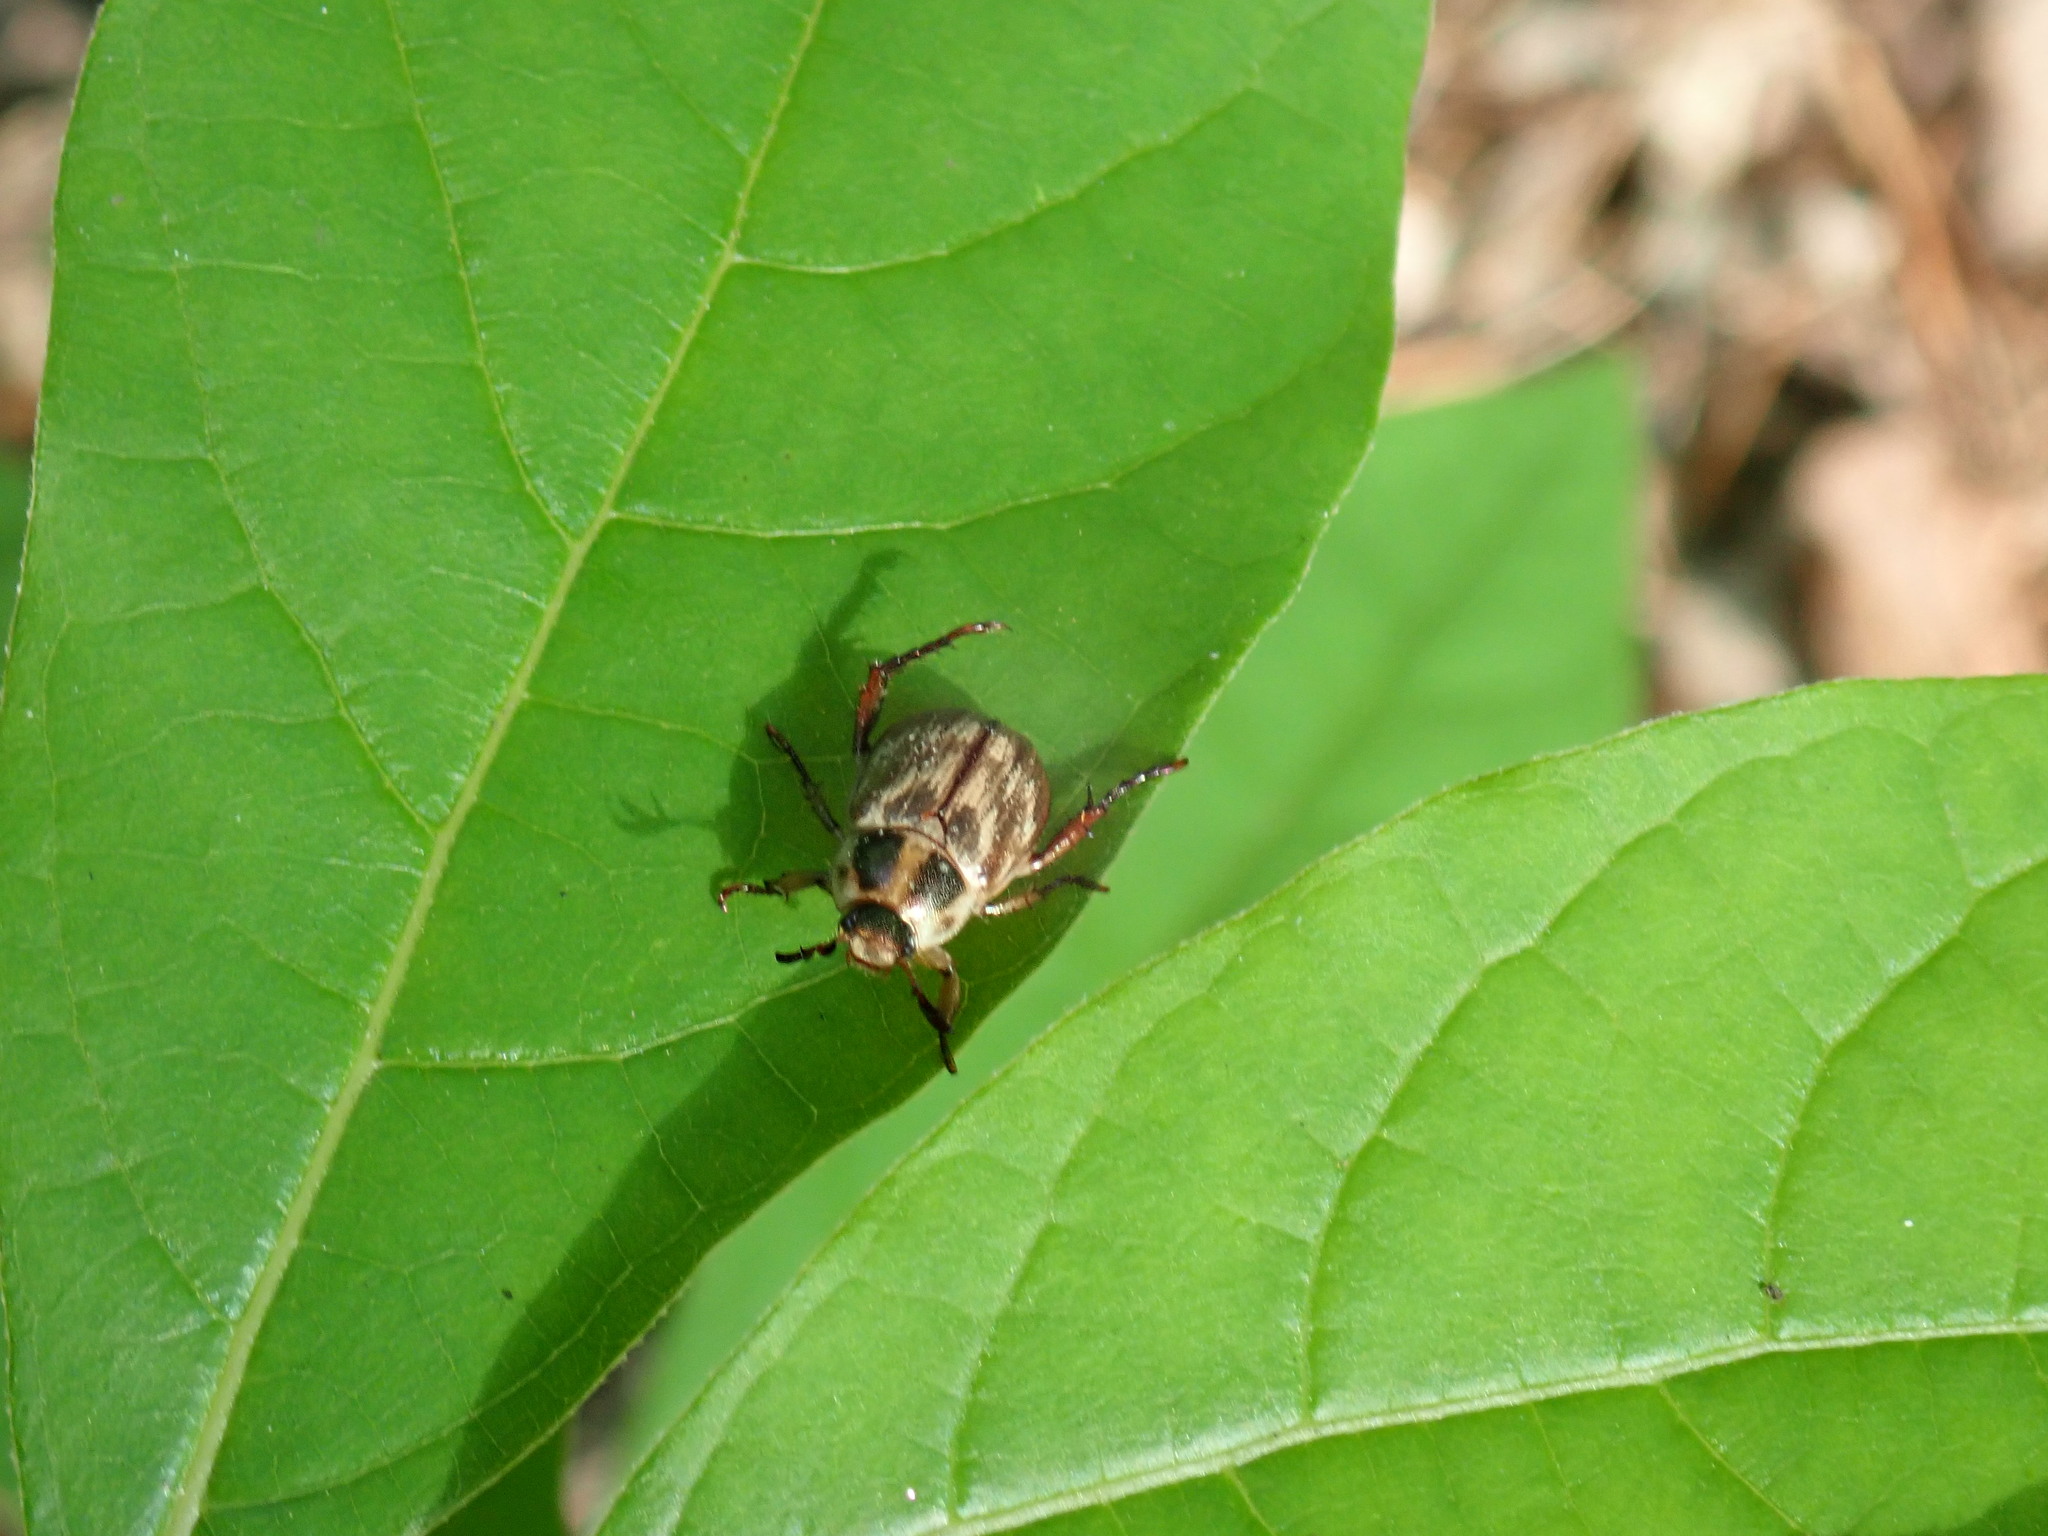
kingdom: Animalia
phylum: Arthropoda
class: Insecta
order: Coleoptera
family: Scarabaeidae
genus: Exomala
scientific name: Exomala orientalis
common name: Oriental beetle
